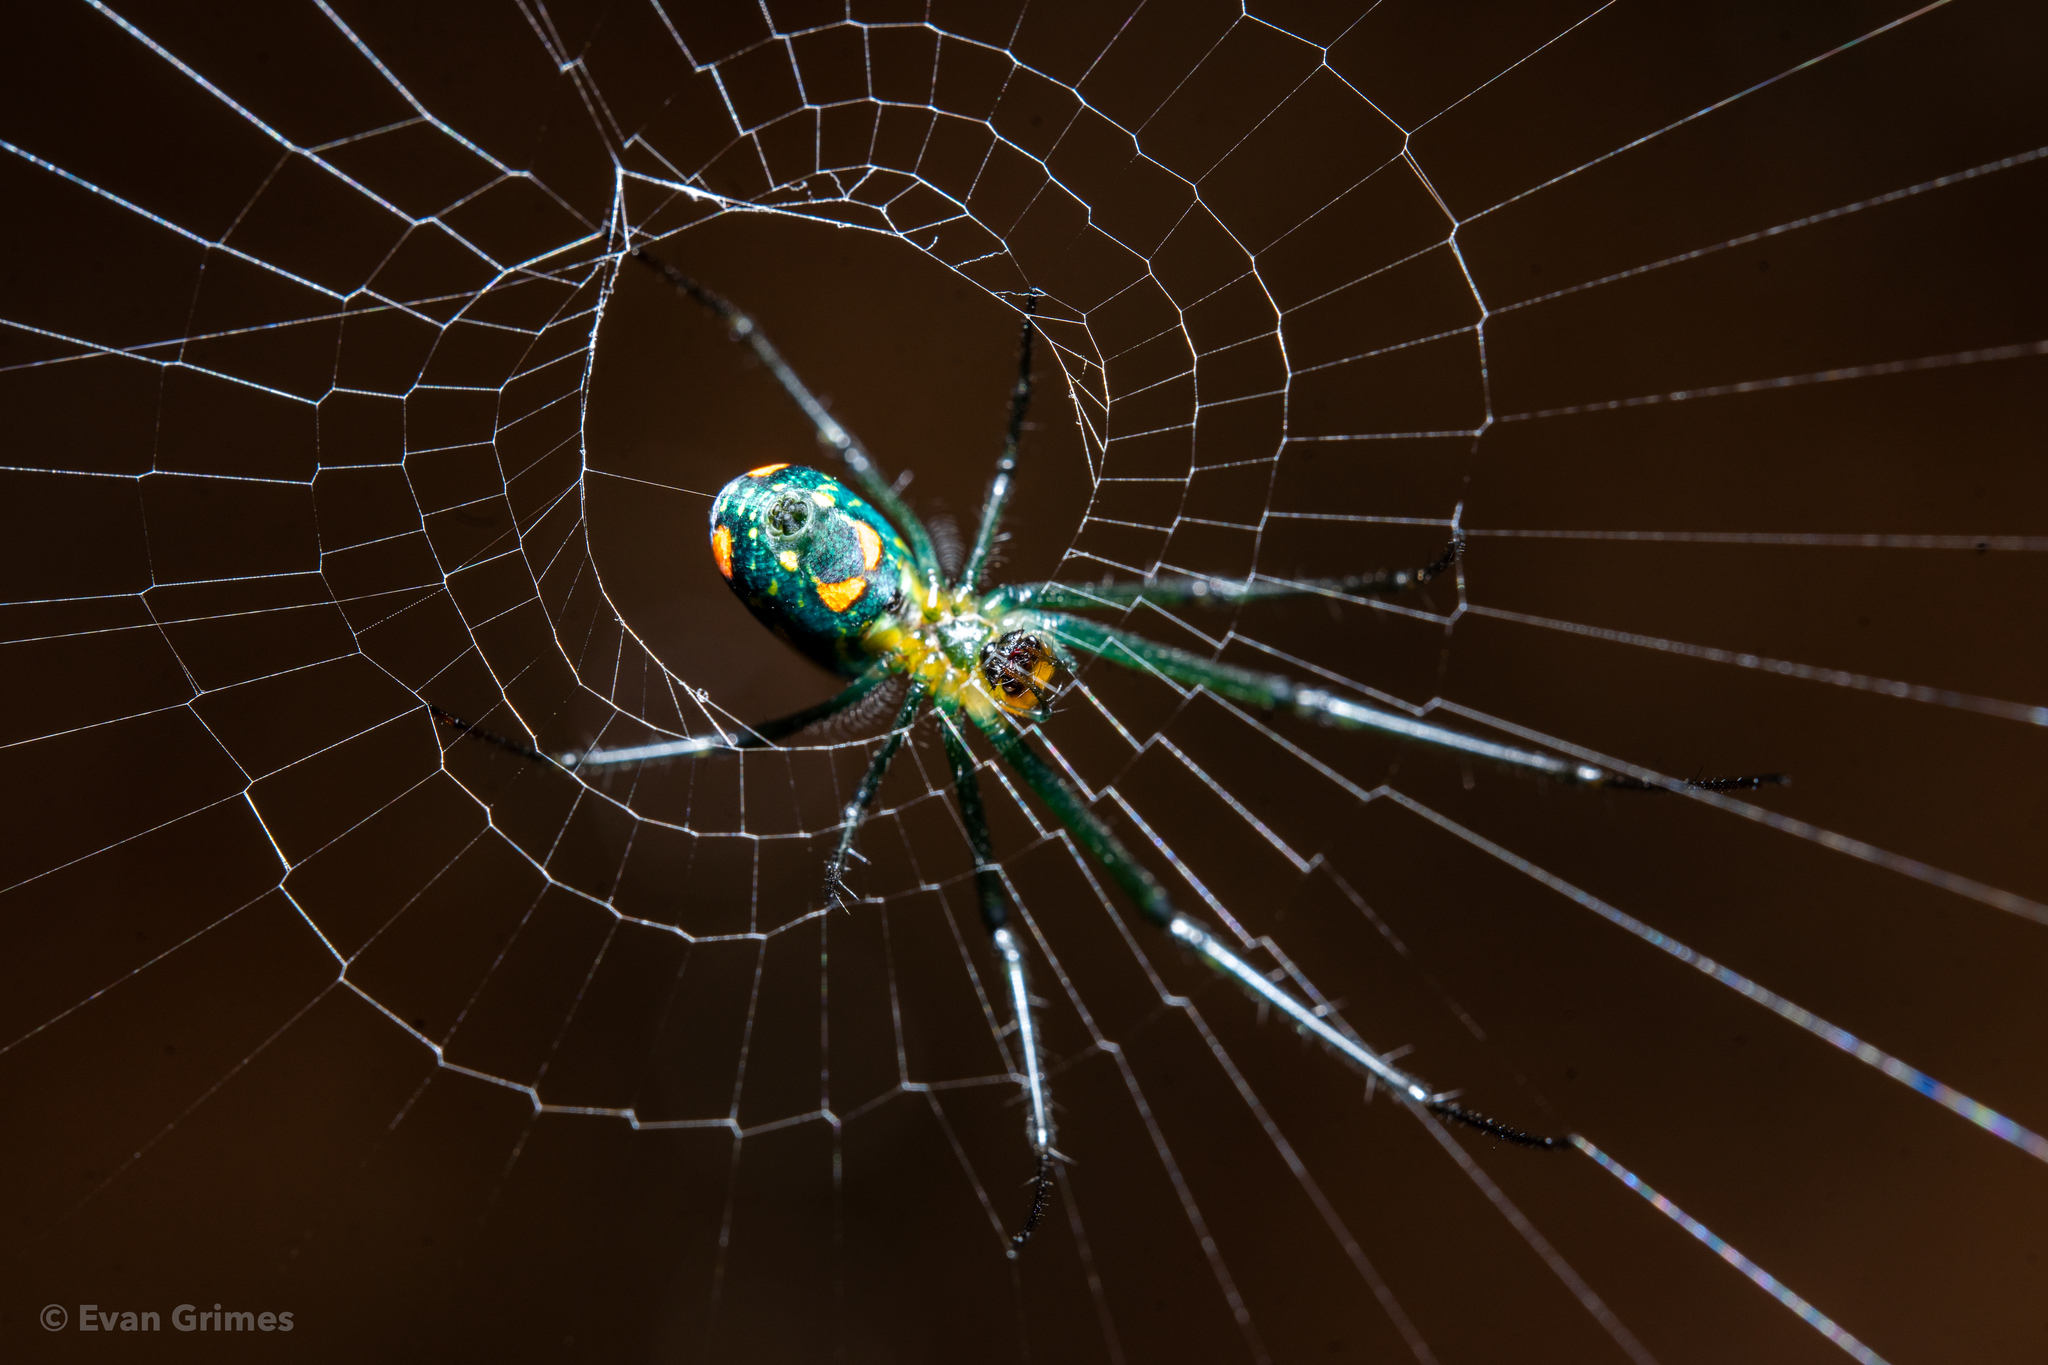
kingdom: Animalia
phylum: Arthropoda
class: Arachnida
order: Araneae
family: Tetragnathidae
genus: Leucauge
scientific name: Leucauge argyrobapta
